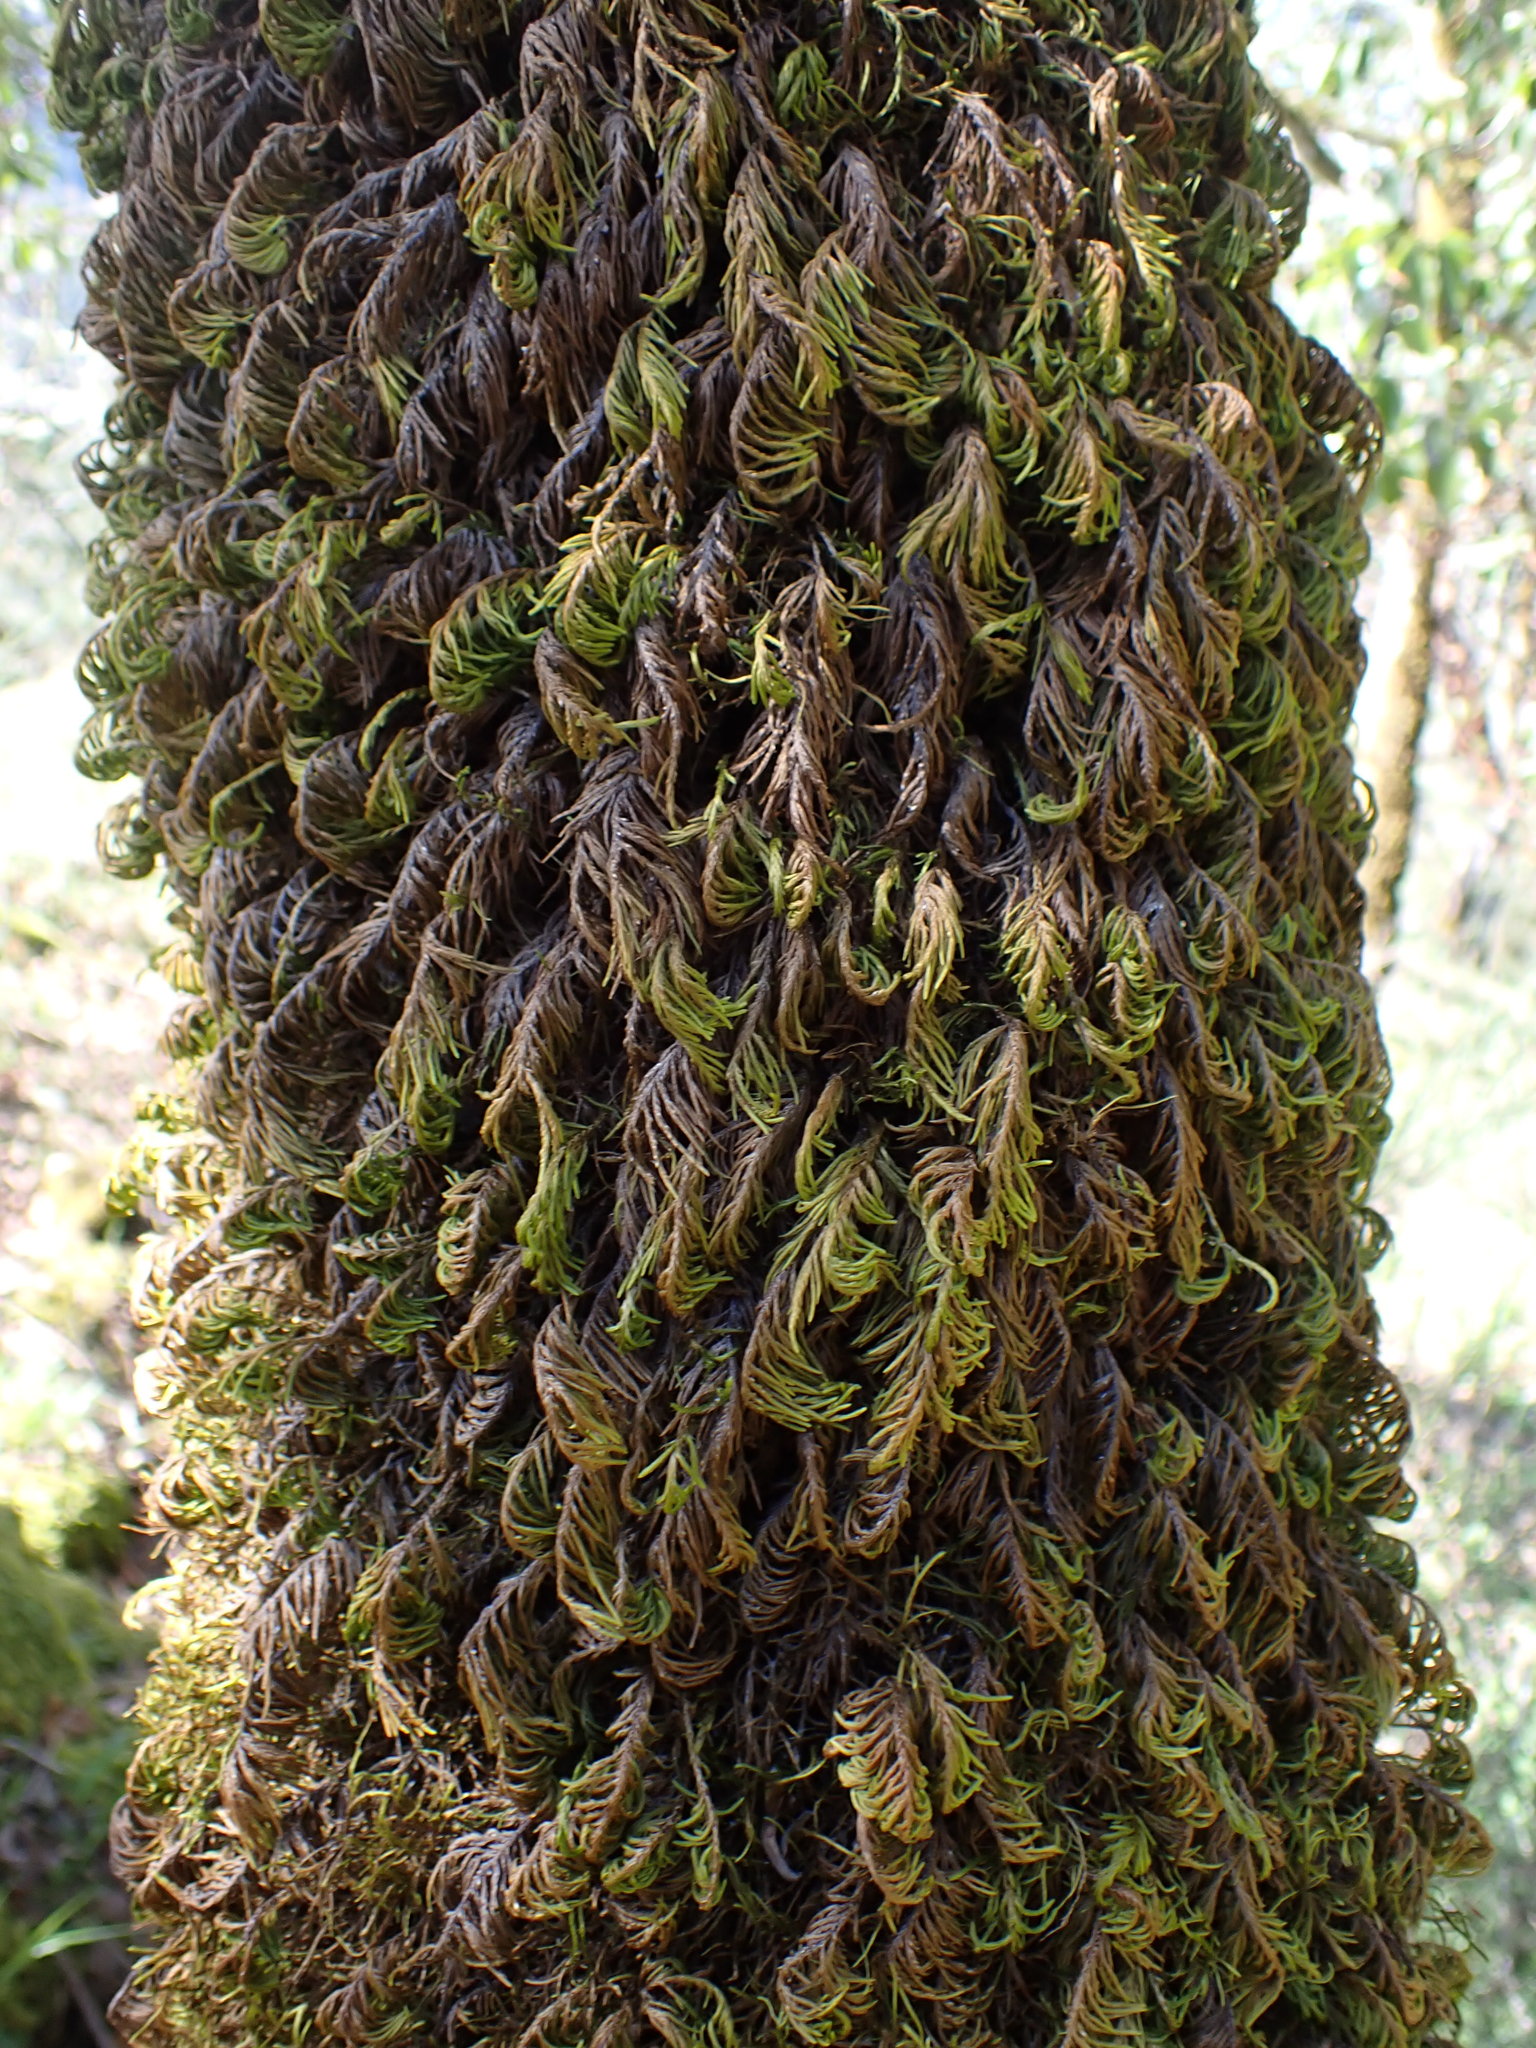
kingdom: Plantae
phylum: Bryophyta
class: Bryopsida
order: Hypnales
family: Cryphaeaceae
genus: Dendroalsia
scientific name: Dendroalsia abietina
